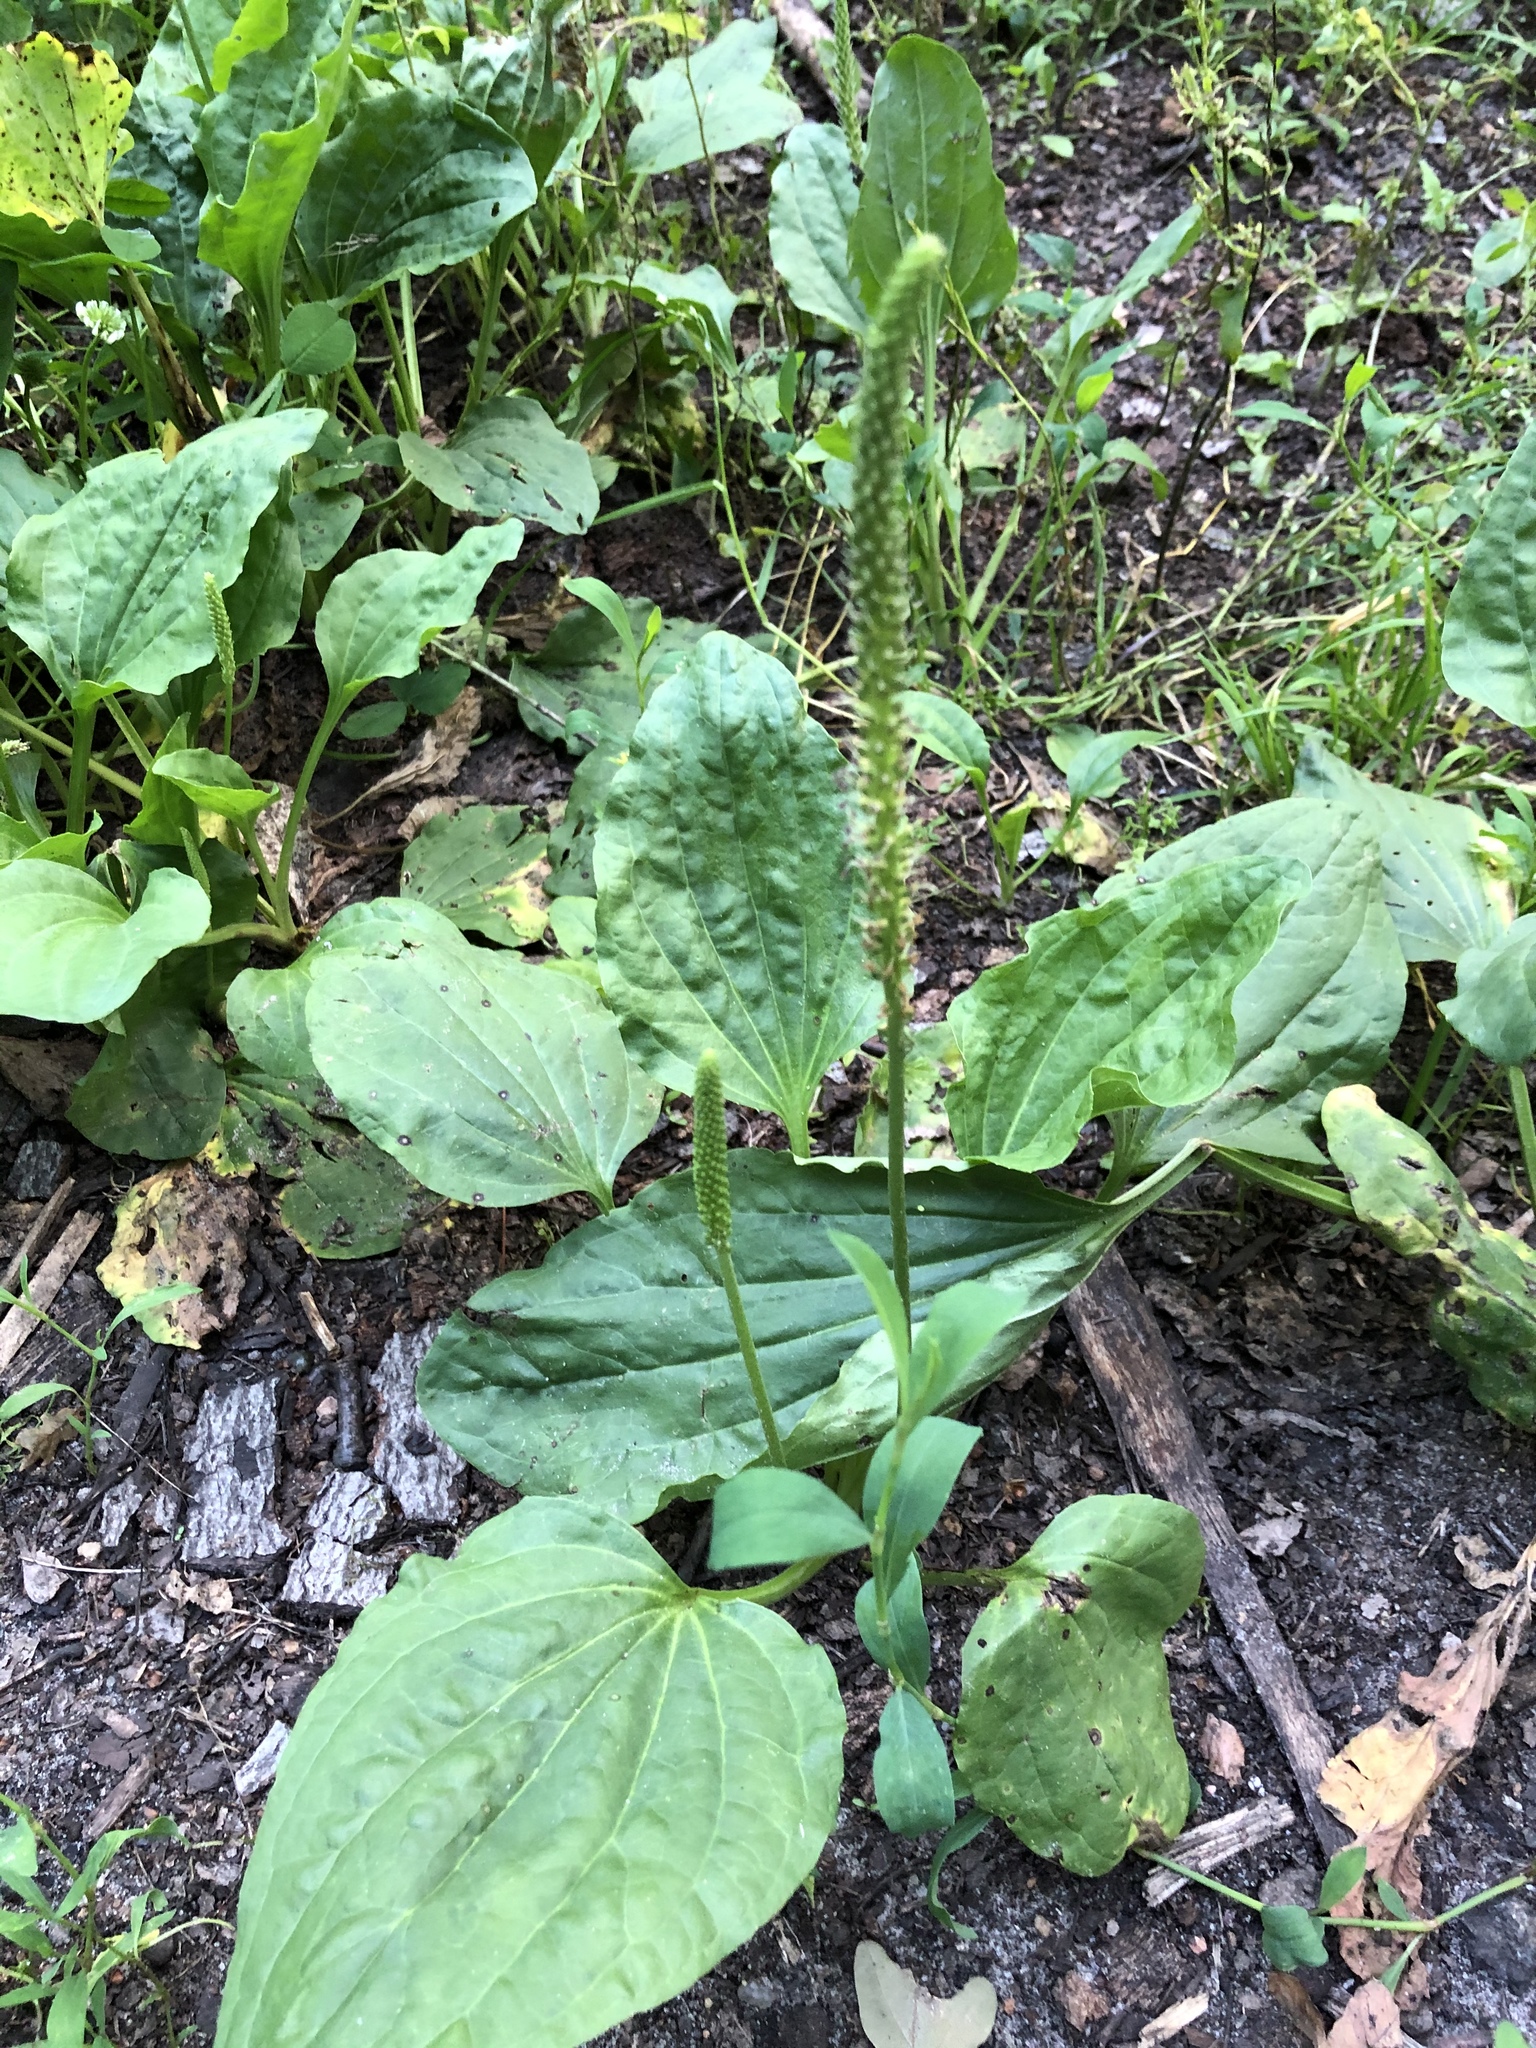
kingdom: Plantae
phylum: Tracheophyta
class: Magnoliopsida
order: Lamiales
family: Plantaginaceae
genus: Plantago
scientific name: Plantago major
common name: Common plantain
